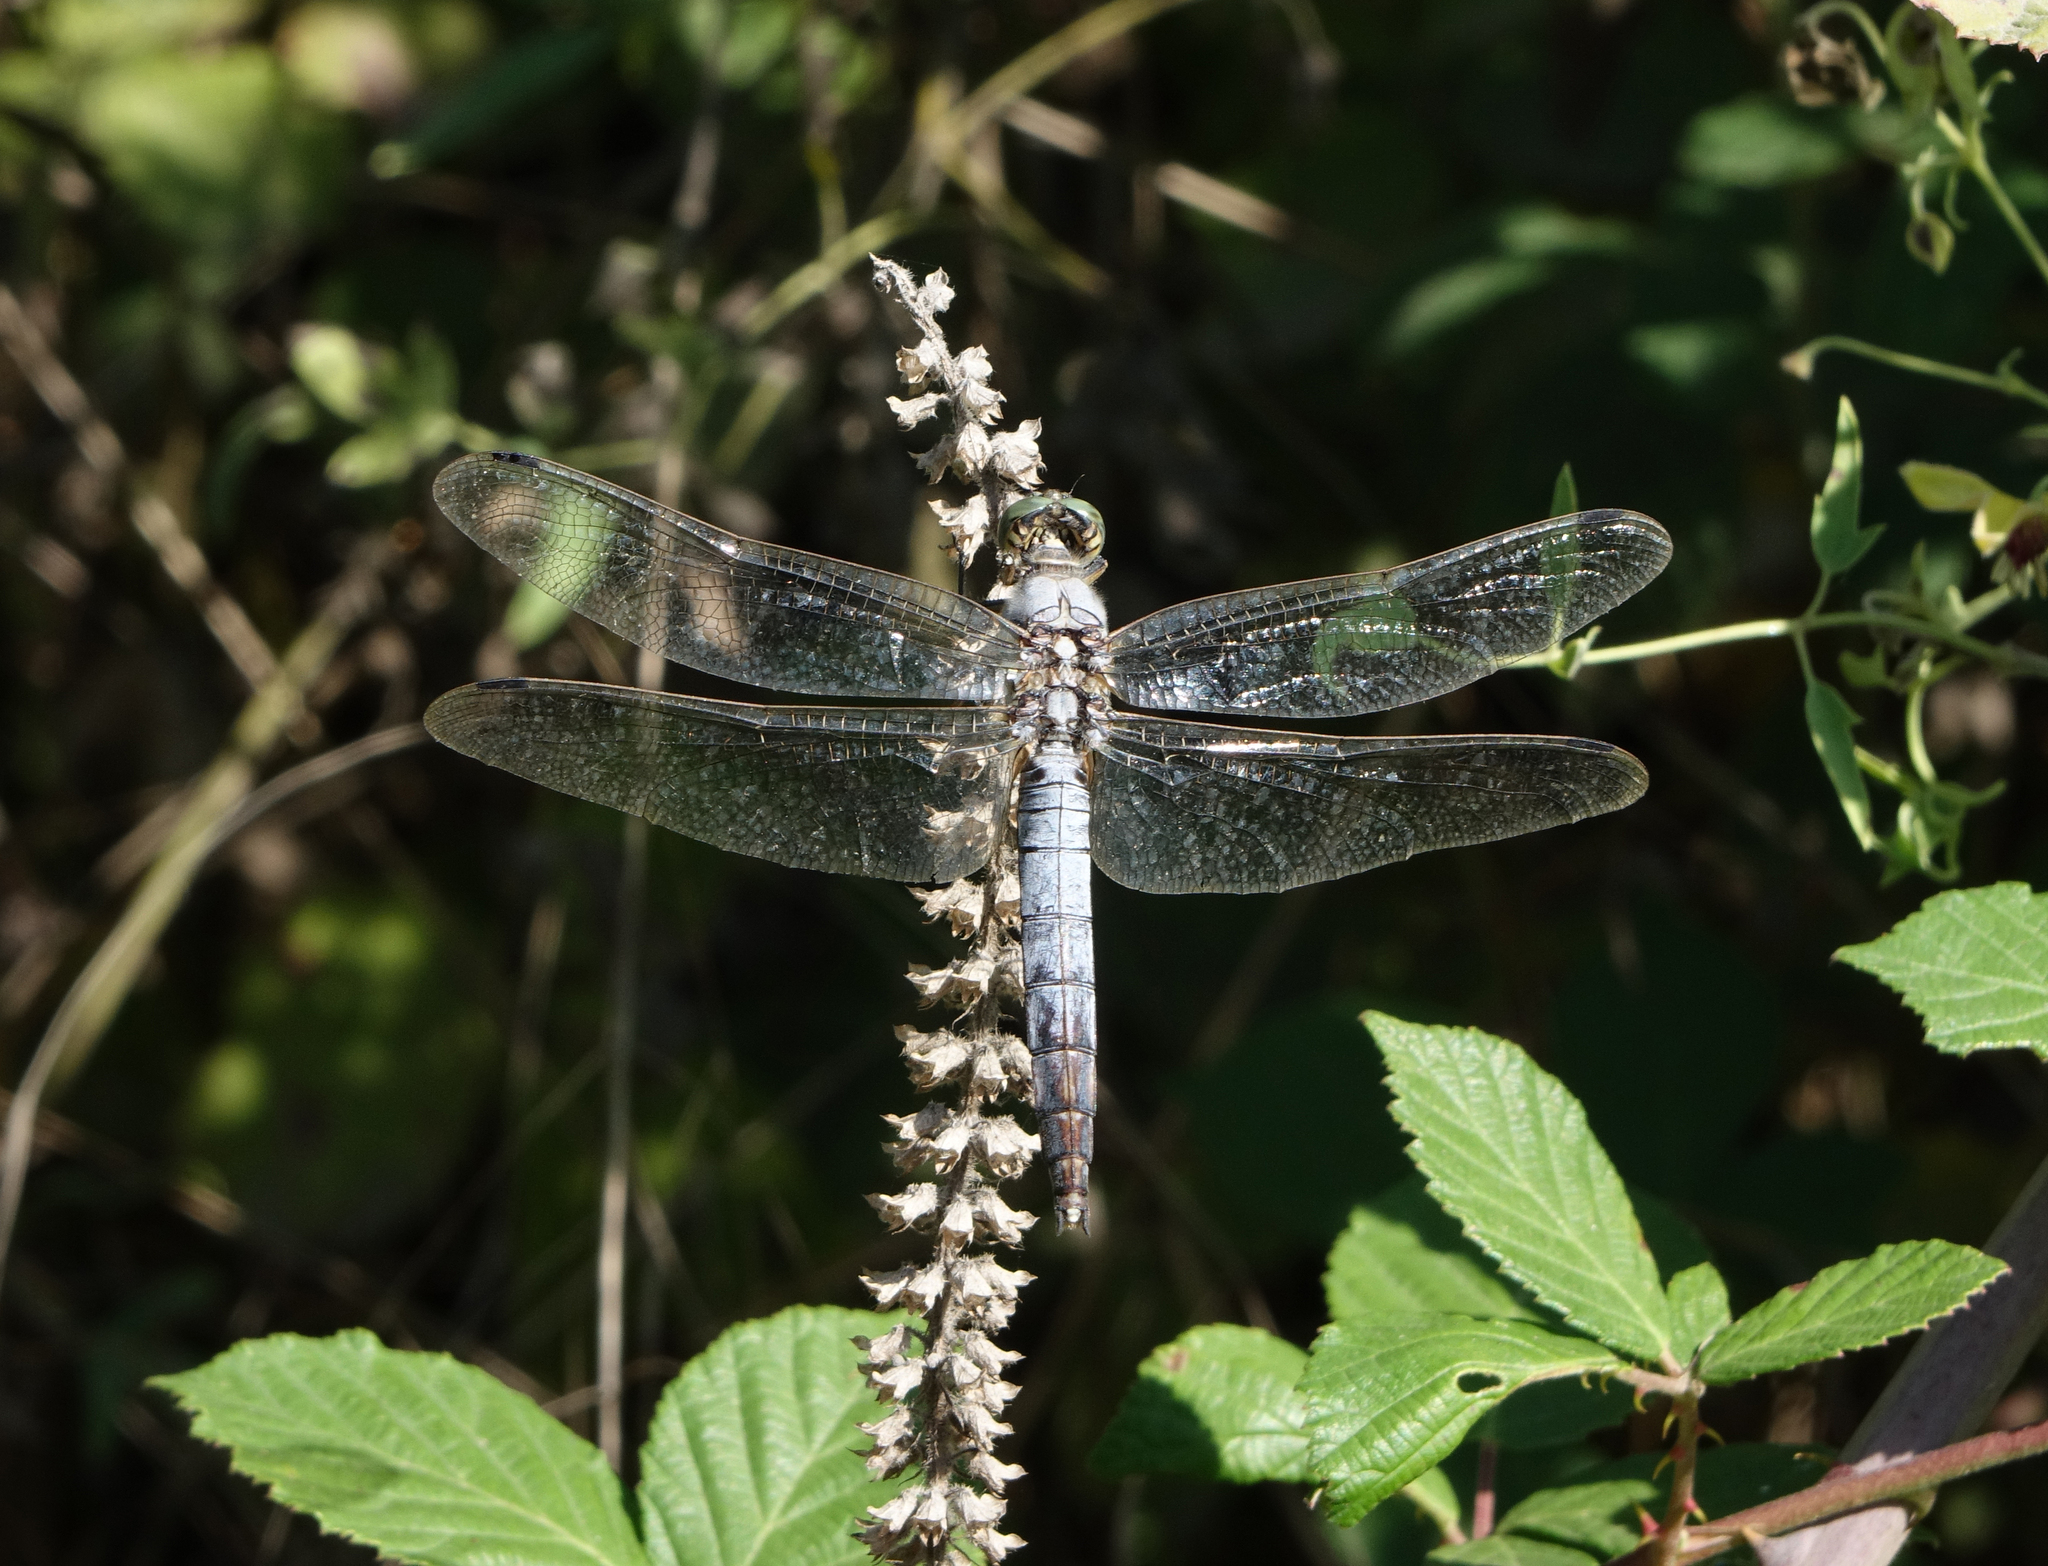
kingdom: Animalia
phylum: Arthropoda
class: Insecta
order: Odonata
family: Libellulidae
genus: Orthetrum
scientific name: Orthetrum cancellatum
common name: Black-tailed skimmer
